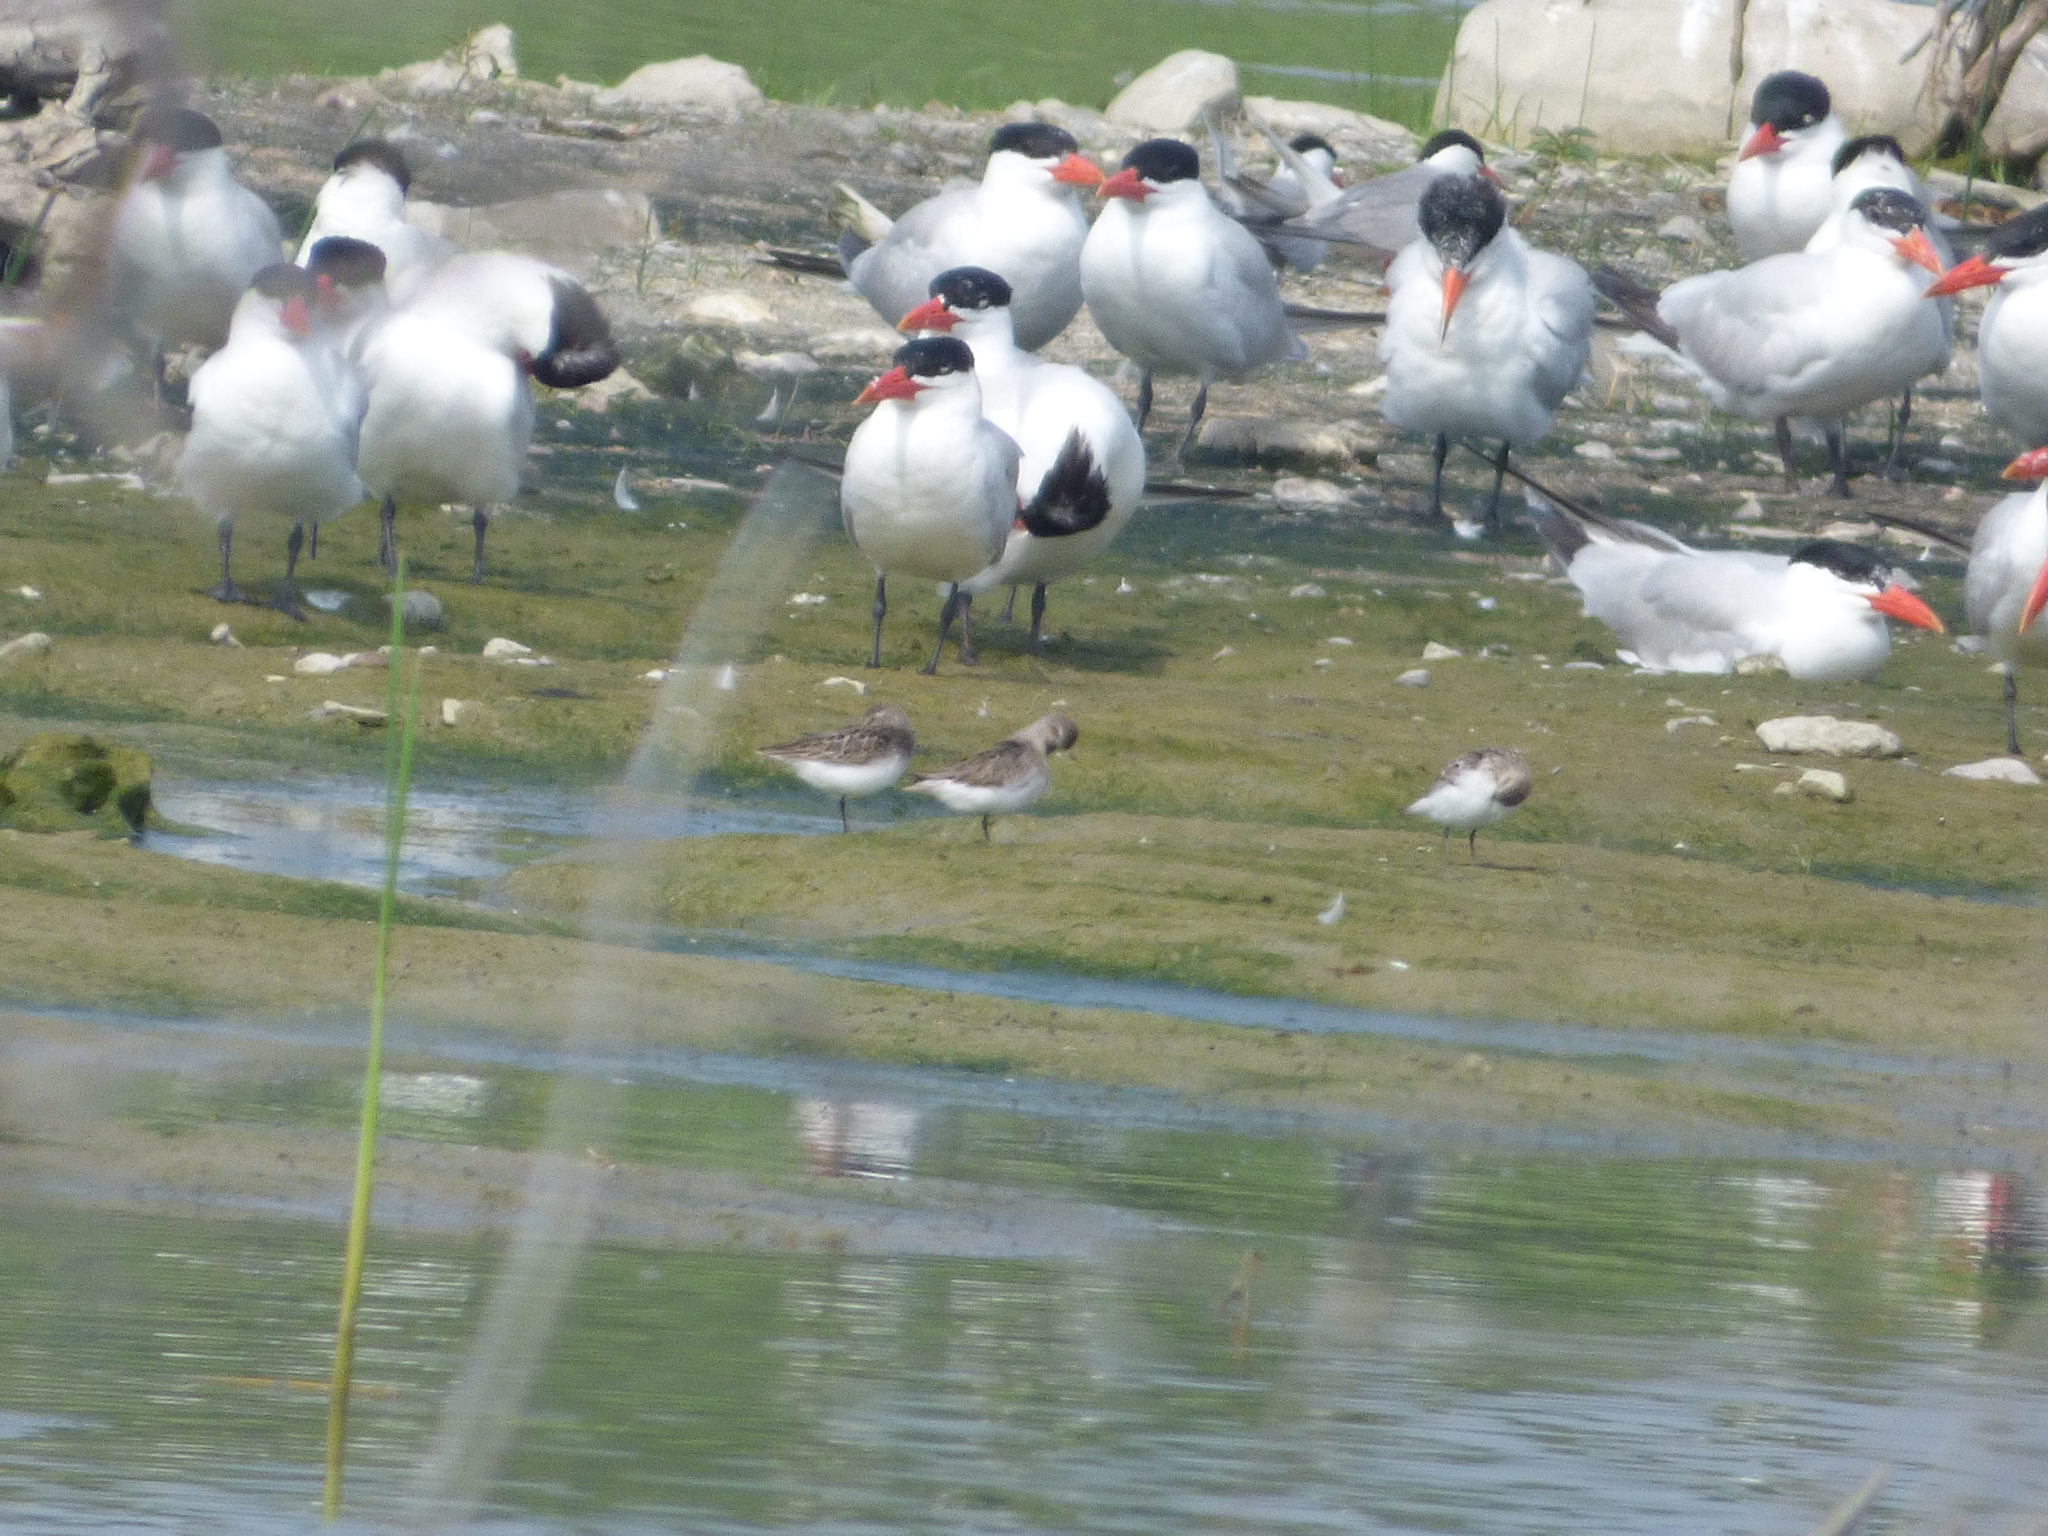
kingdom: Animalia
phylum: Chordata
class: Aves
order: Charadriiformes
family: Laridae
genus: Hydroprogne
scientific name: Hydroprogne caspia
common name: Caspian tern
